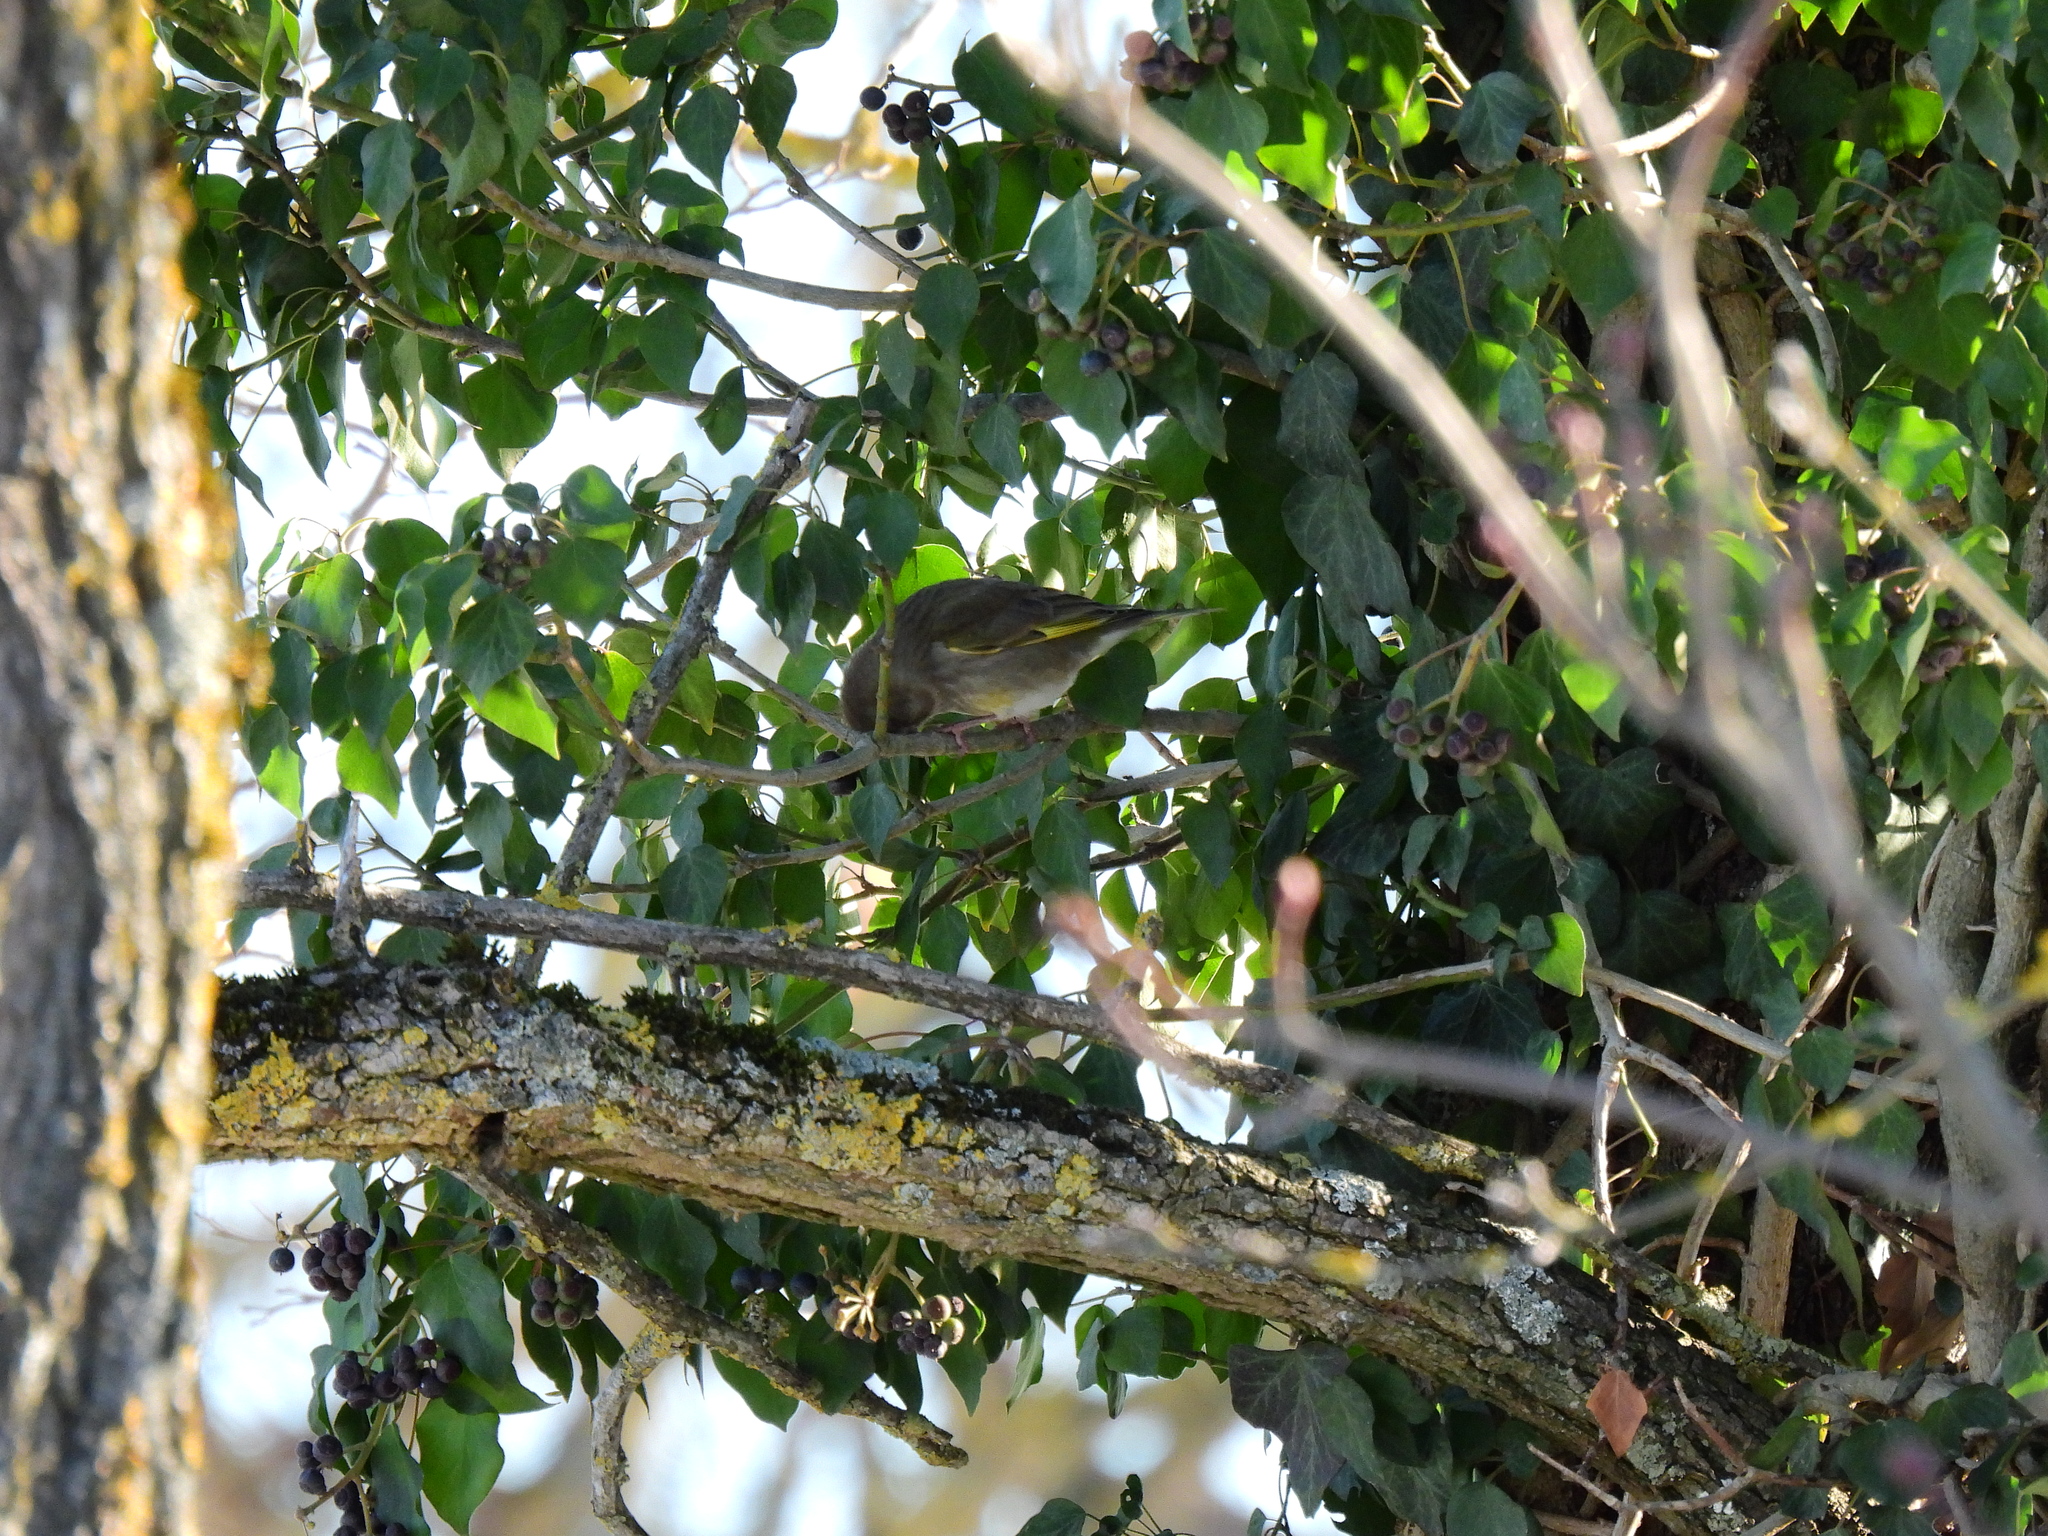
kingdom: Plantae
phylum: Tracheophyta
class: Liliopsida
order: Poales
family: Poaceae
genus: Chloris
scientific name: Chloris chloris
